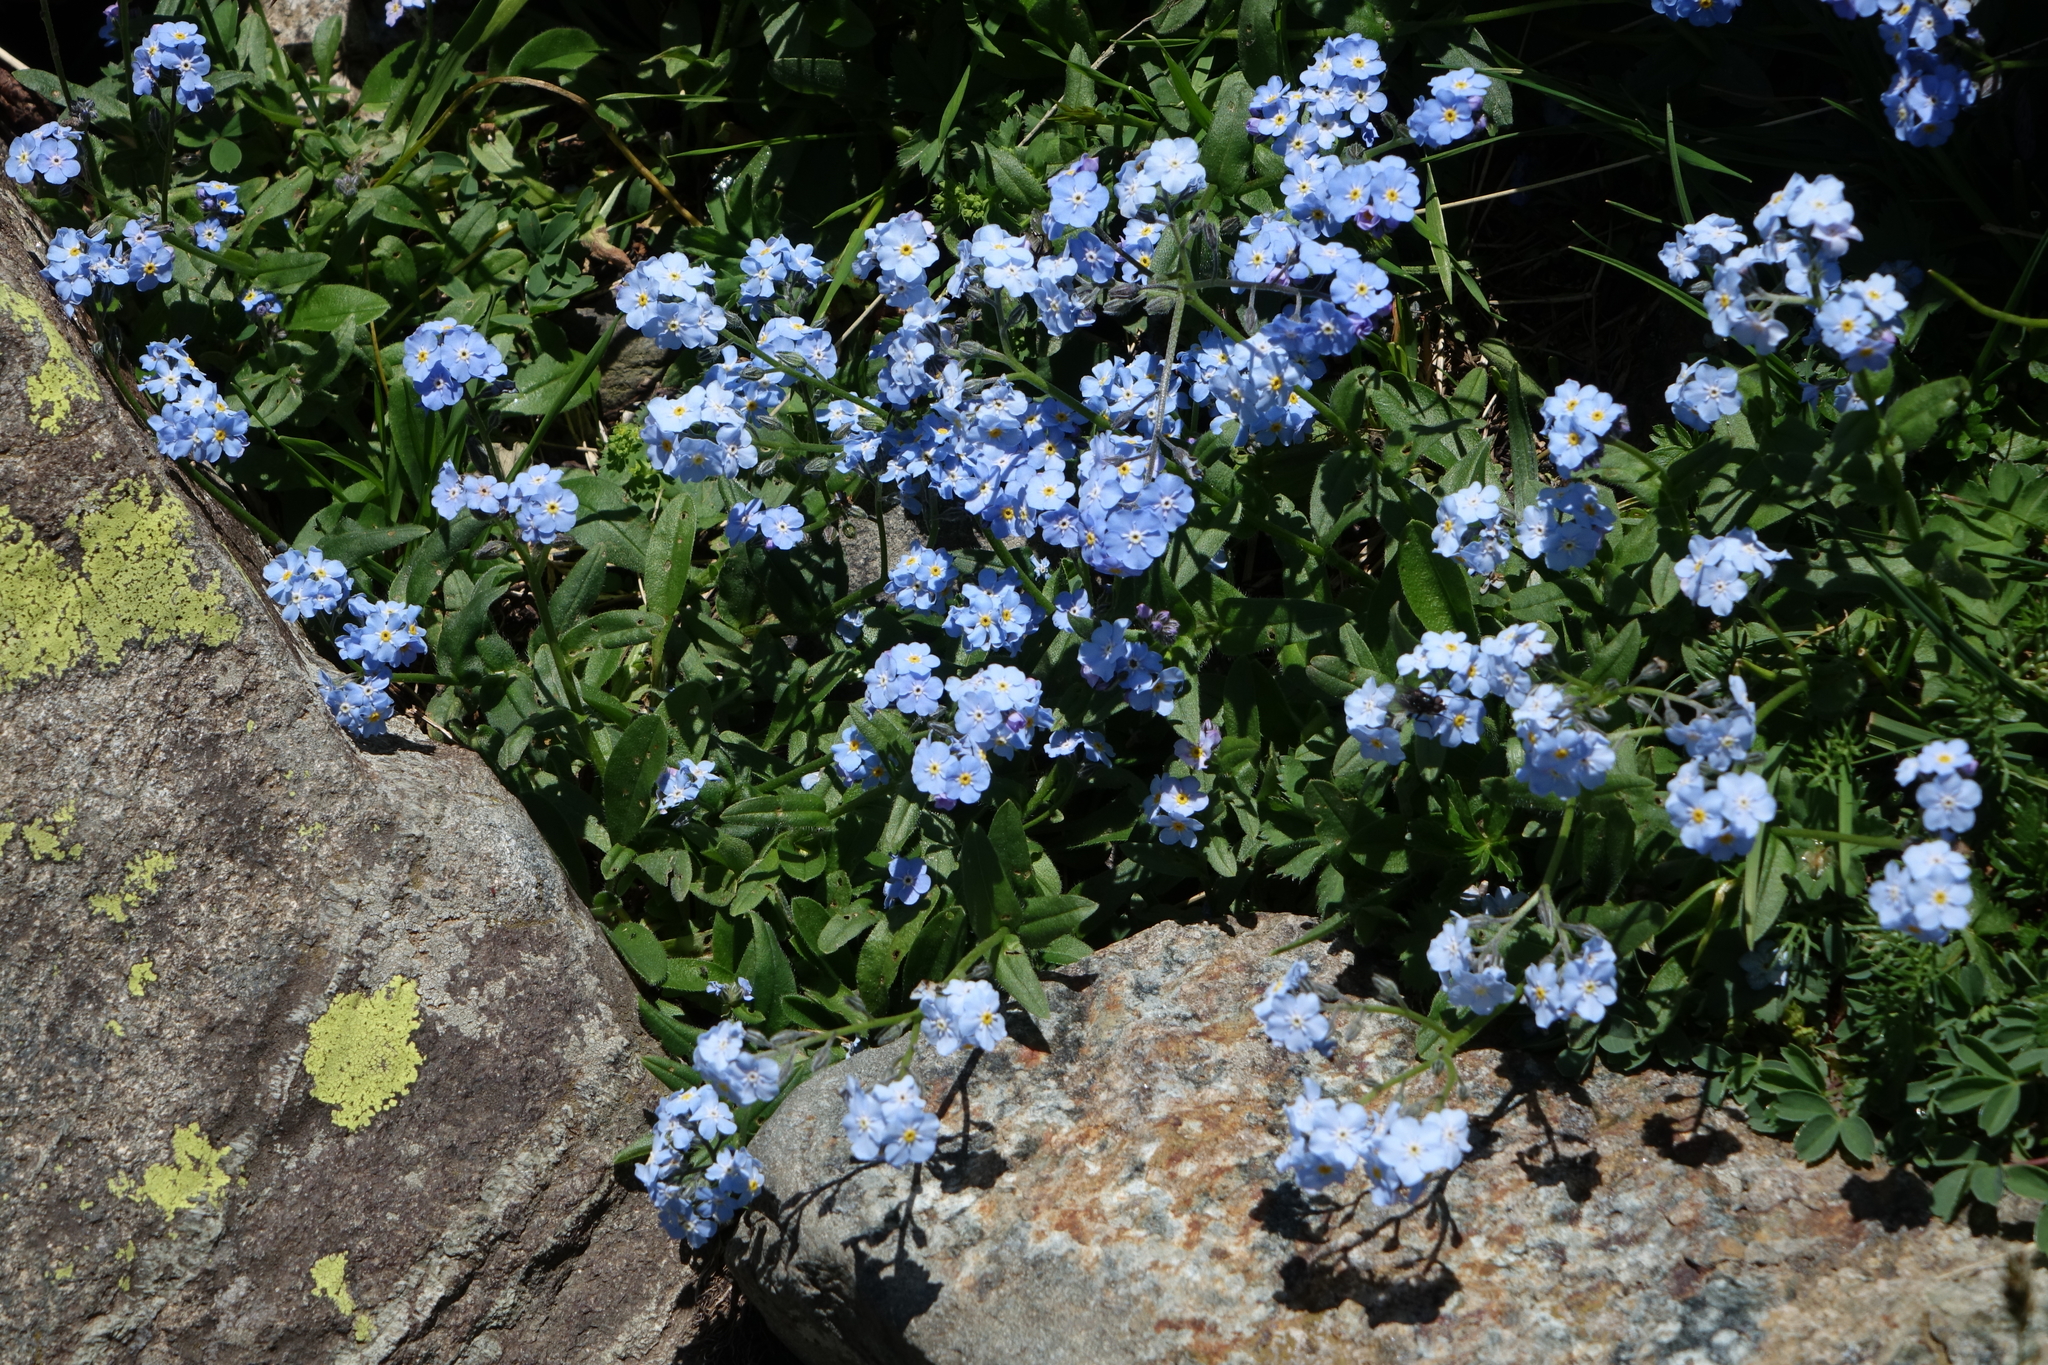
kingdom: Plantae
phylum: Tracheophyta
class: Magnoliopsida
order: Boraginales
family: Boraginaceae
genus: Myosotis
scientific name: Myosotis alpestris
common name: Alpine forget-me-not
